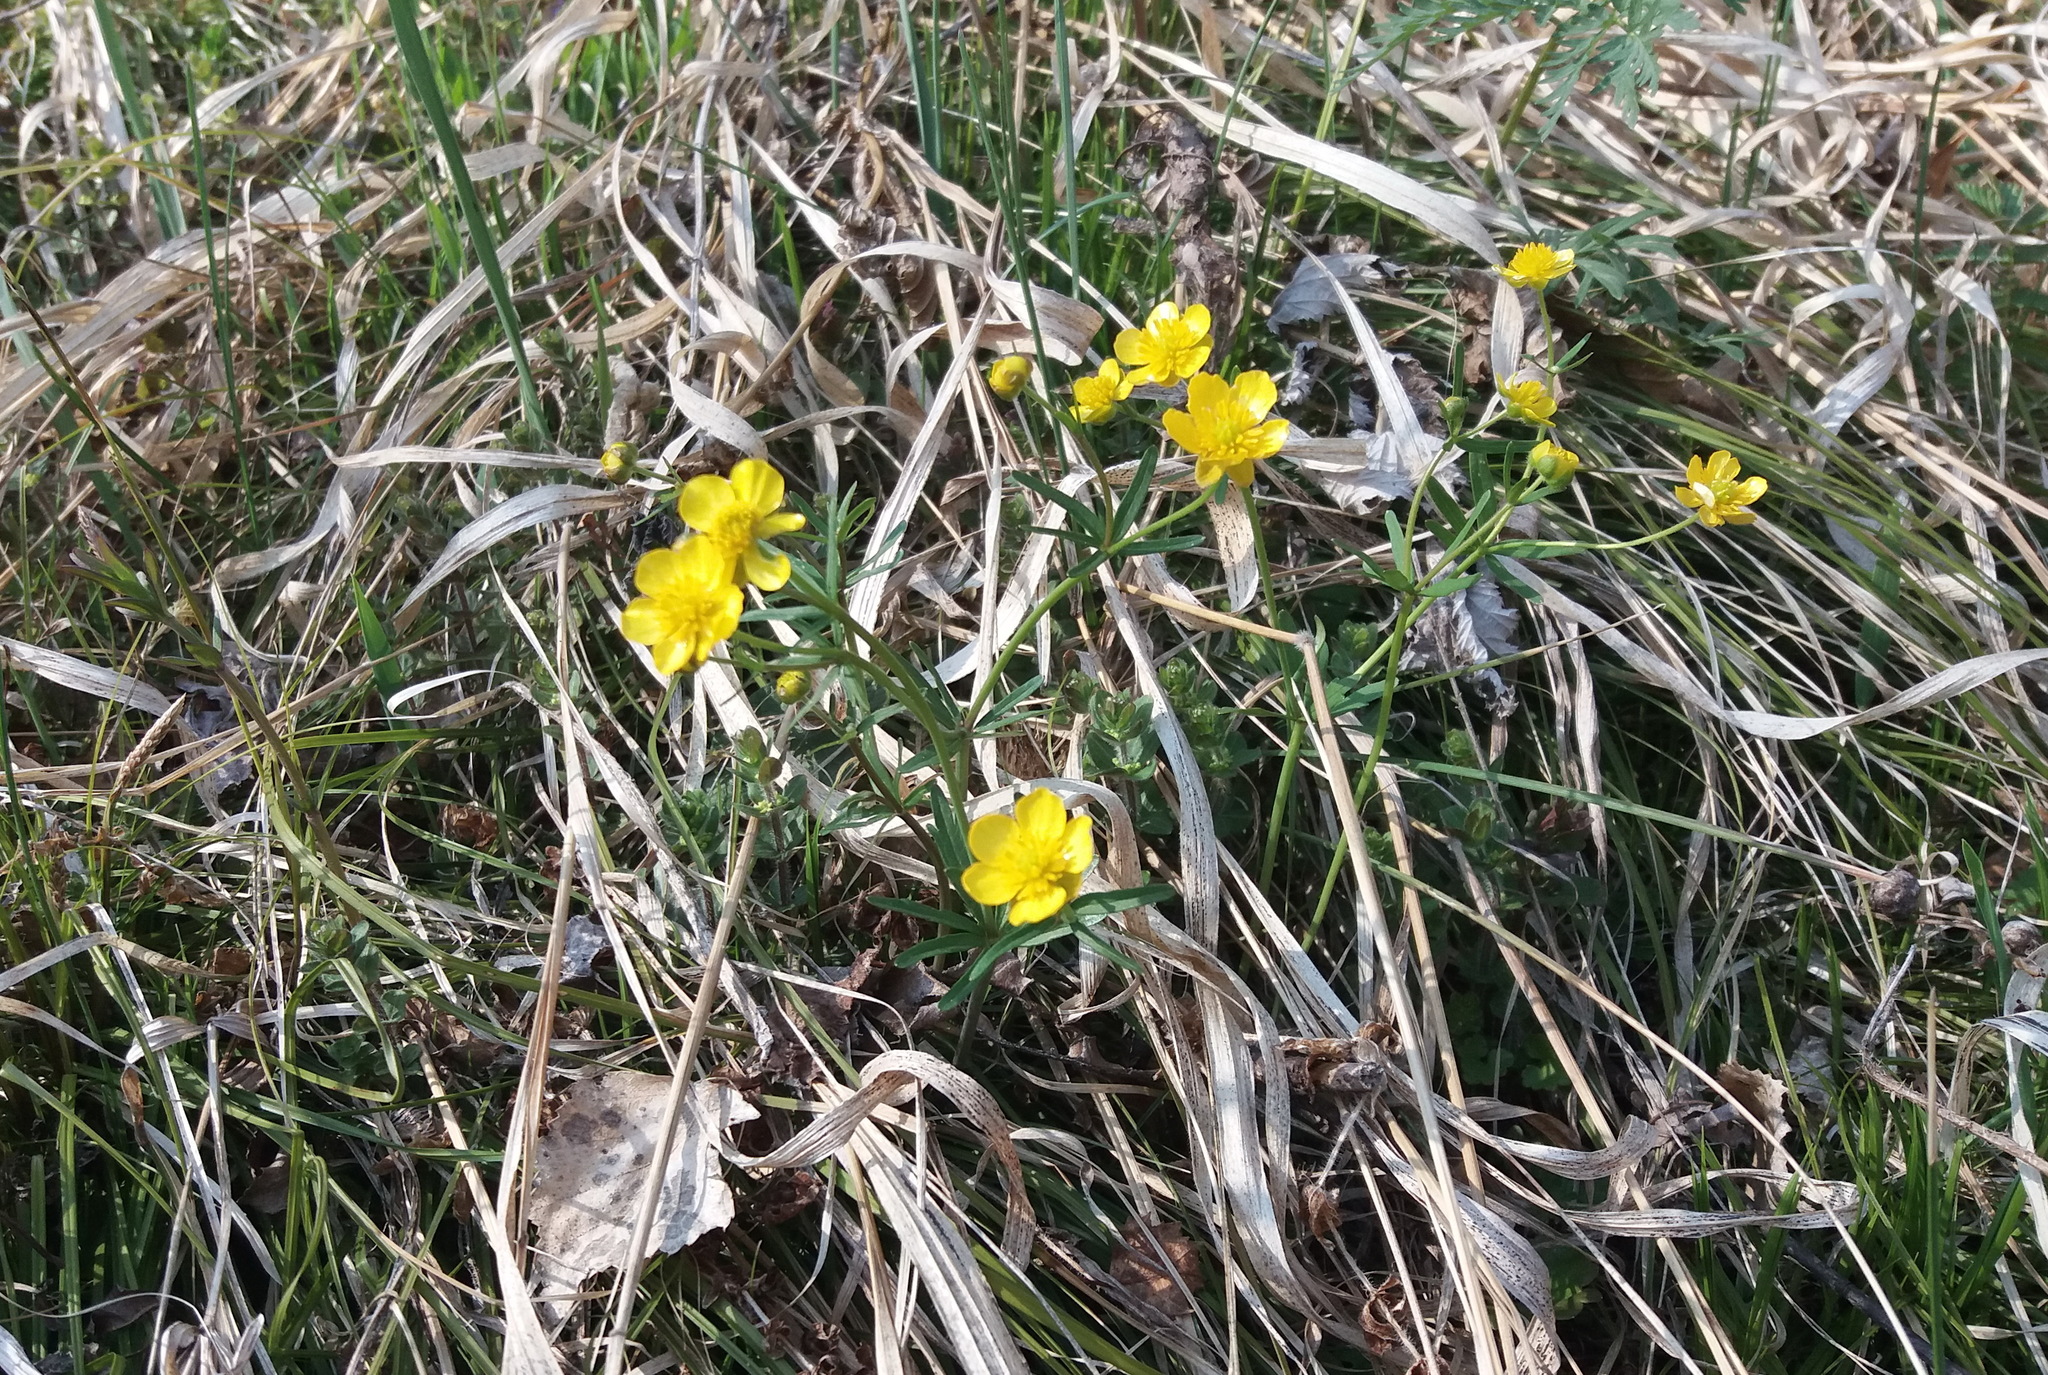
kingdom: Plantae
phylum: Tracheophyta
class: Magnoliopsida
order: Ranunculales
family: Ranunculaceae
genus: Ranunculus
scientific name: Ranunculus monophyllus
